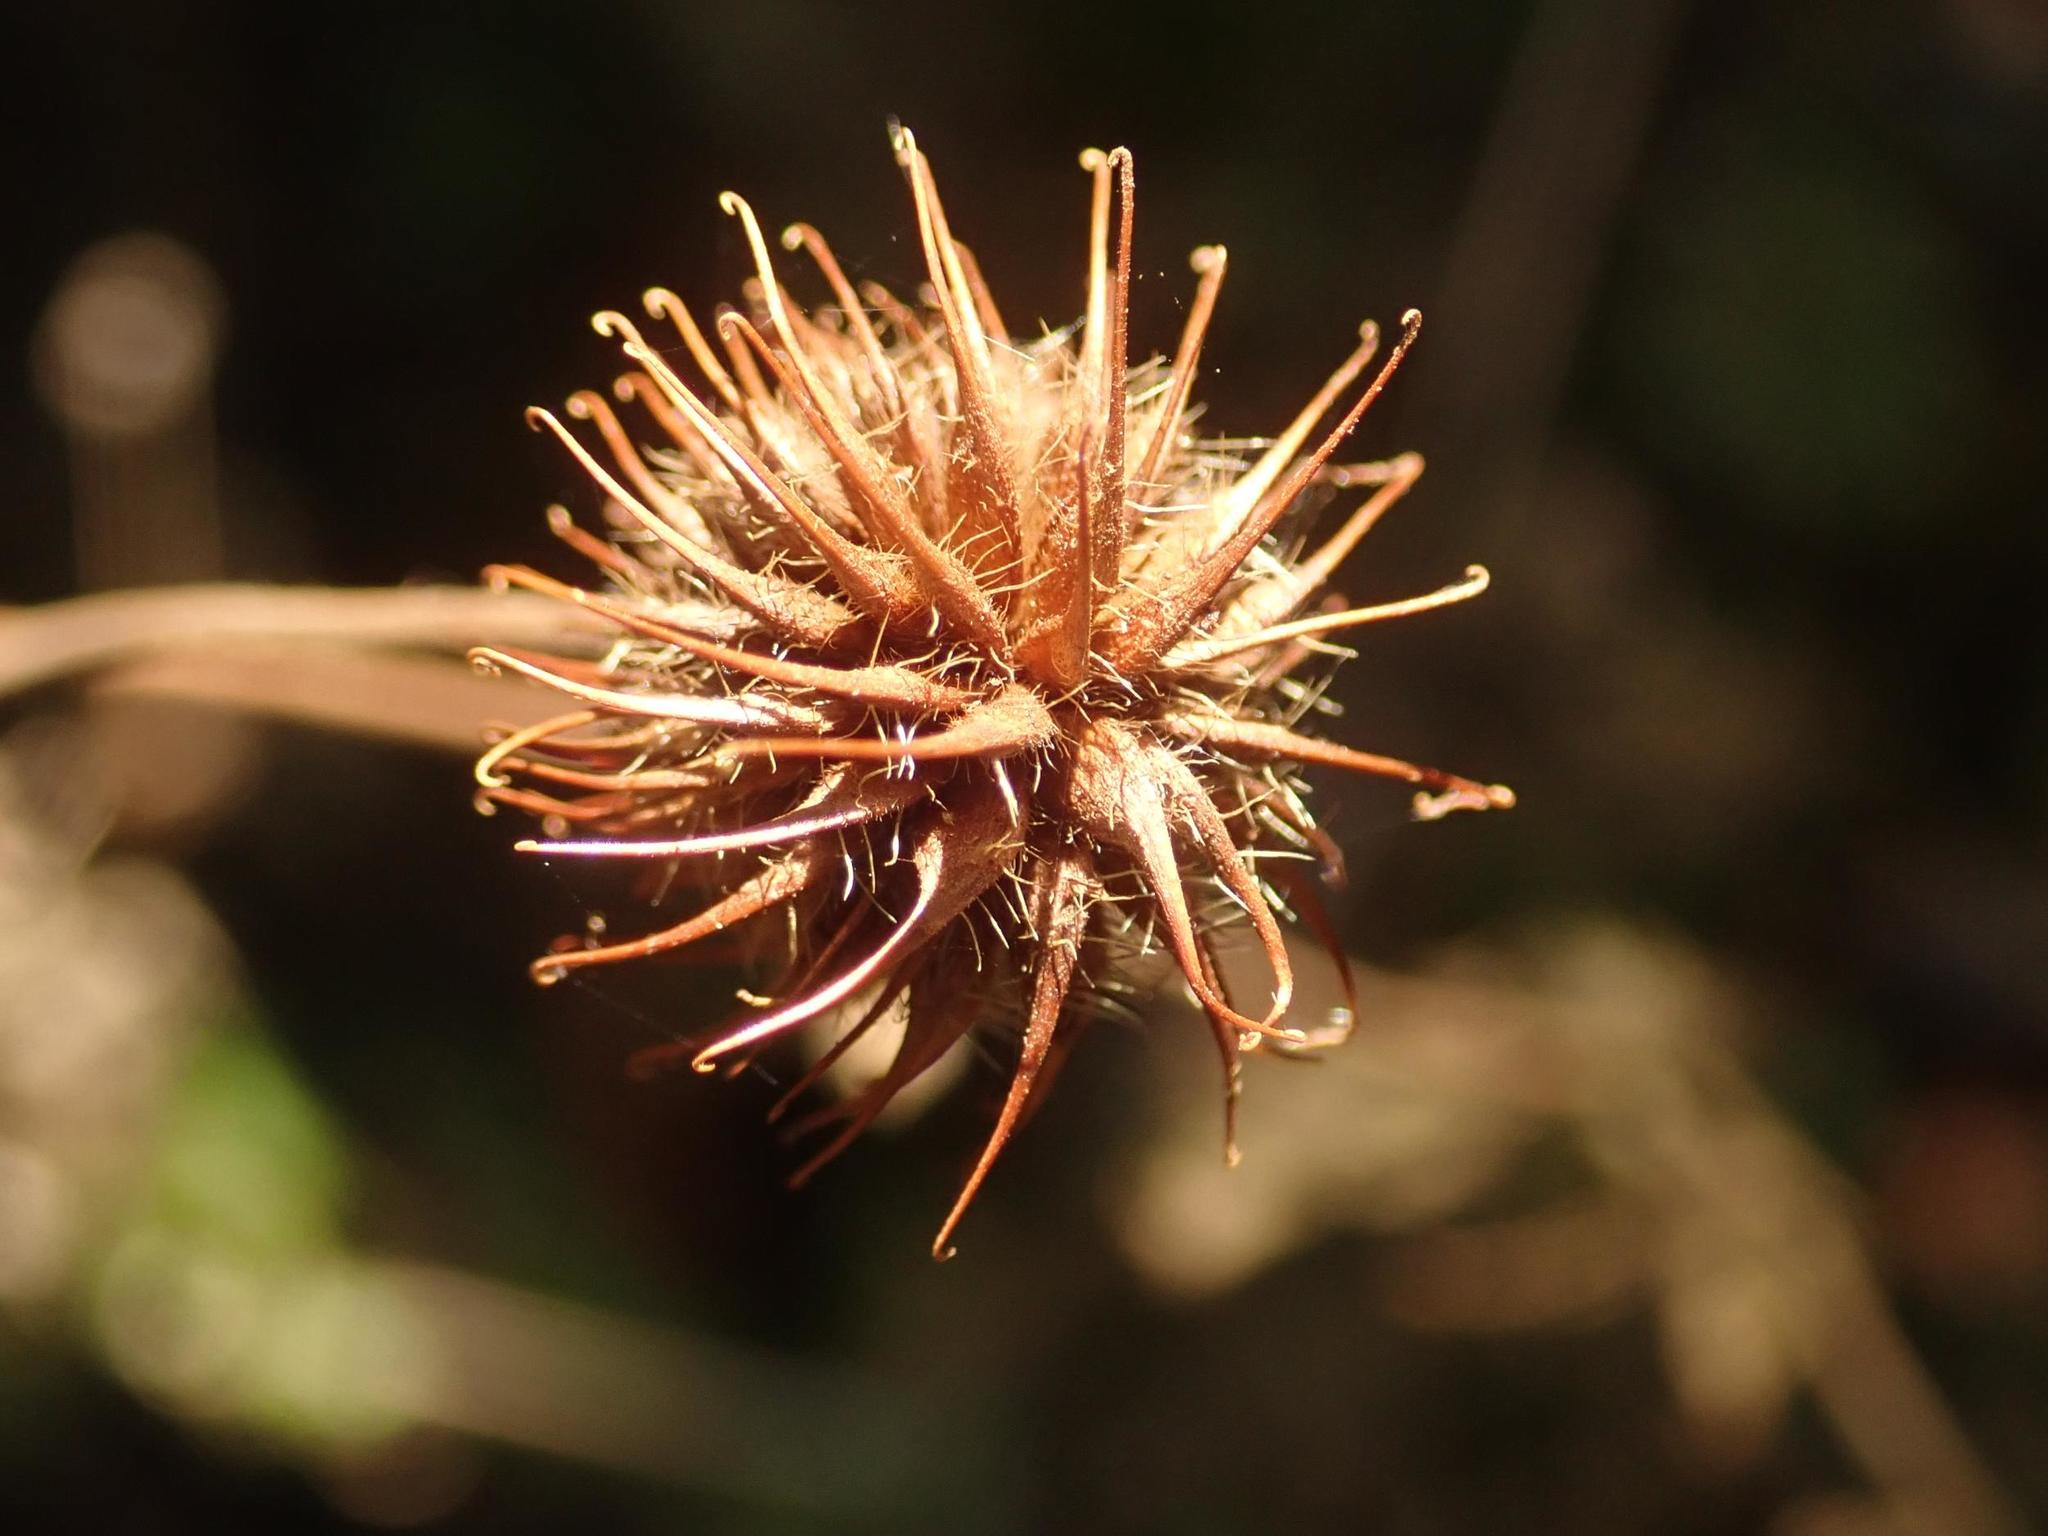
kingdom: Plantae
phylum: Tracheophyta
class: Magnoliopsida
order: Rosales
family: Rosaceae
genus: Geum
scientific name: Geum urbanum
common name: Wood avens
